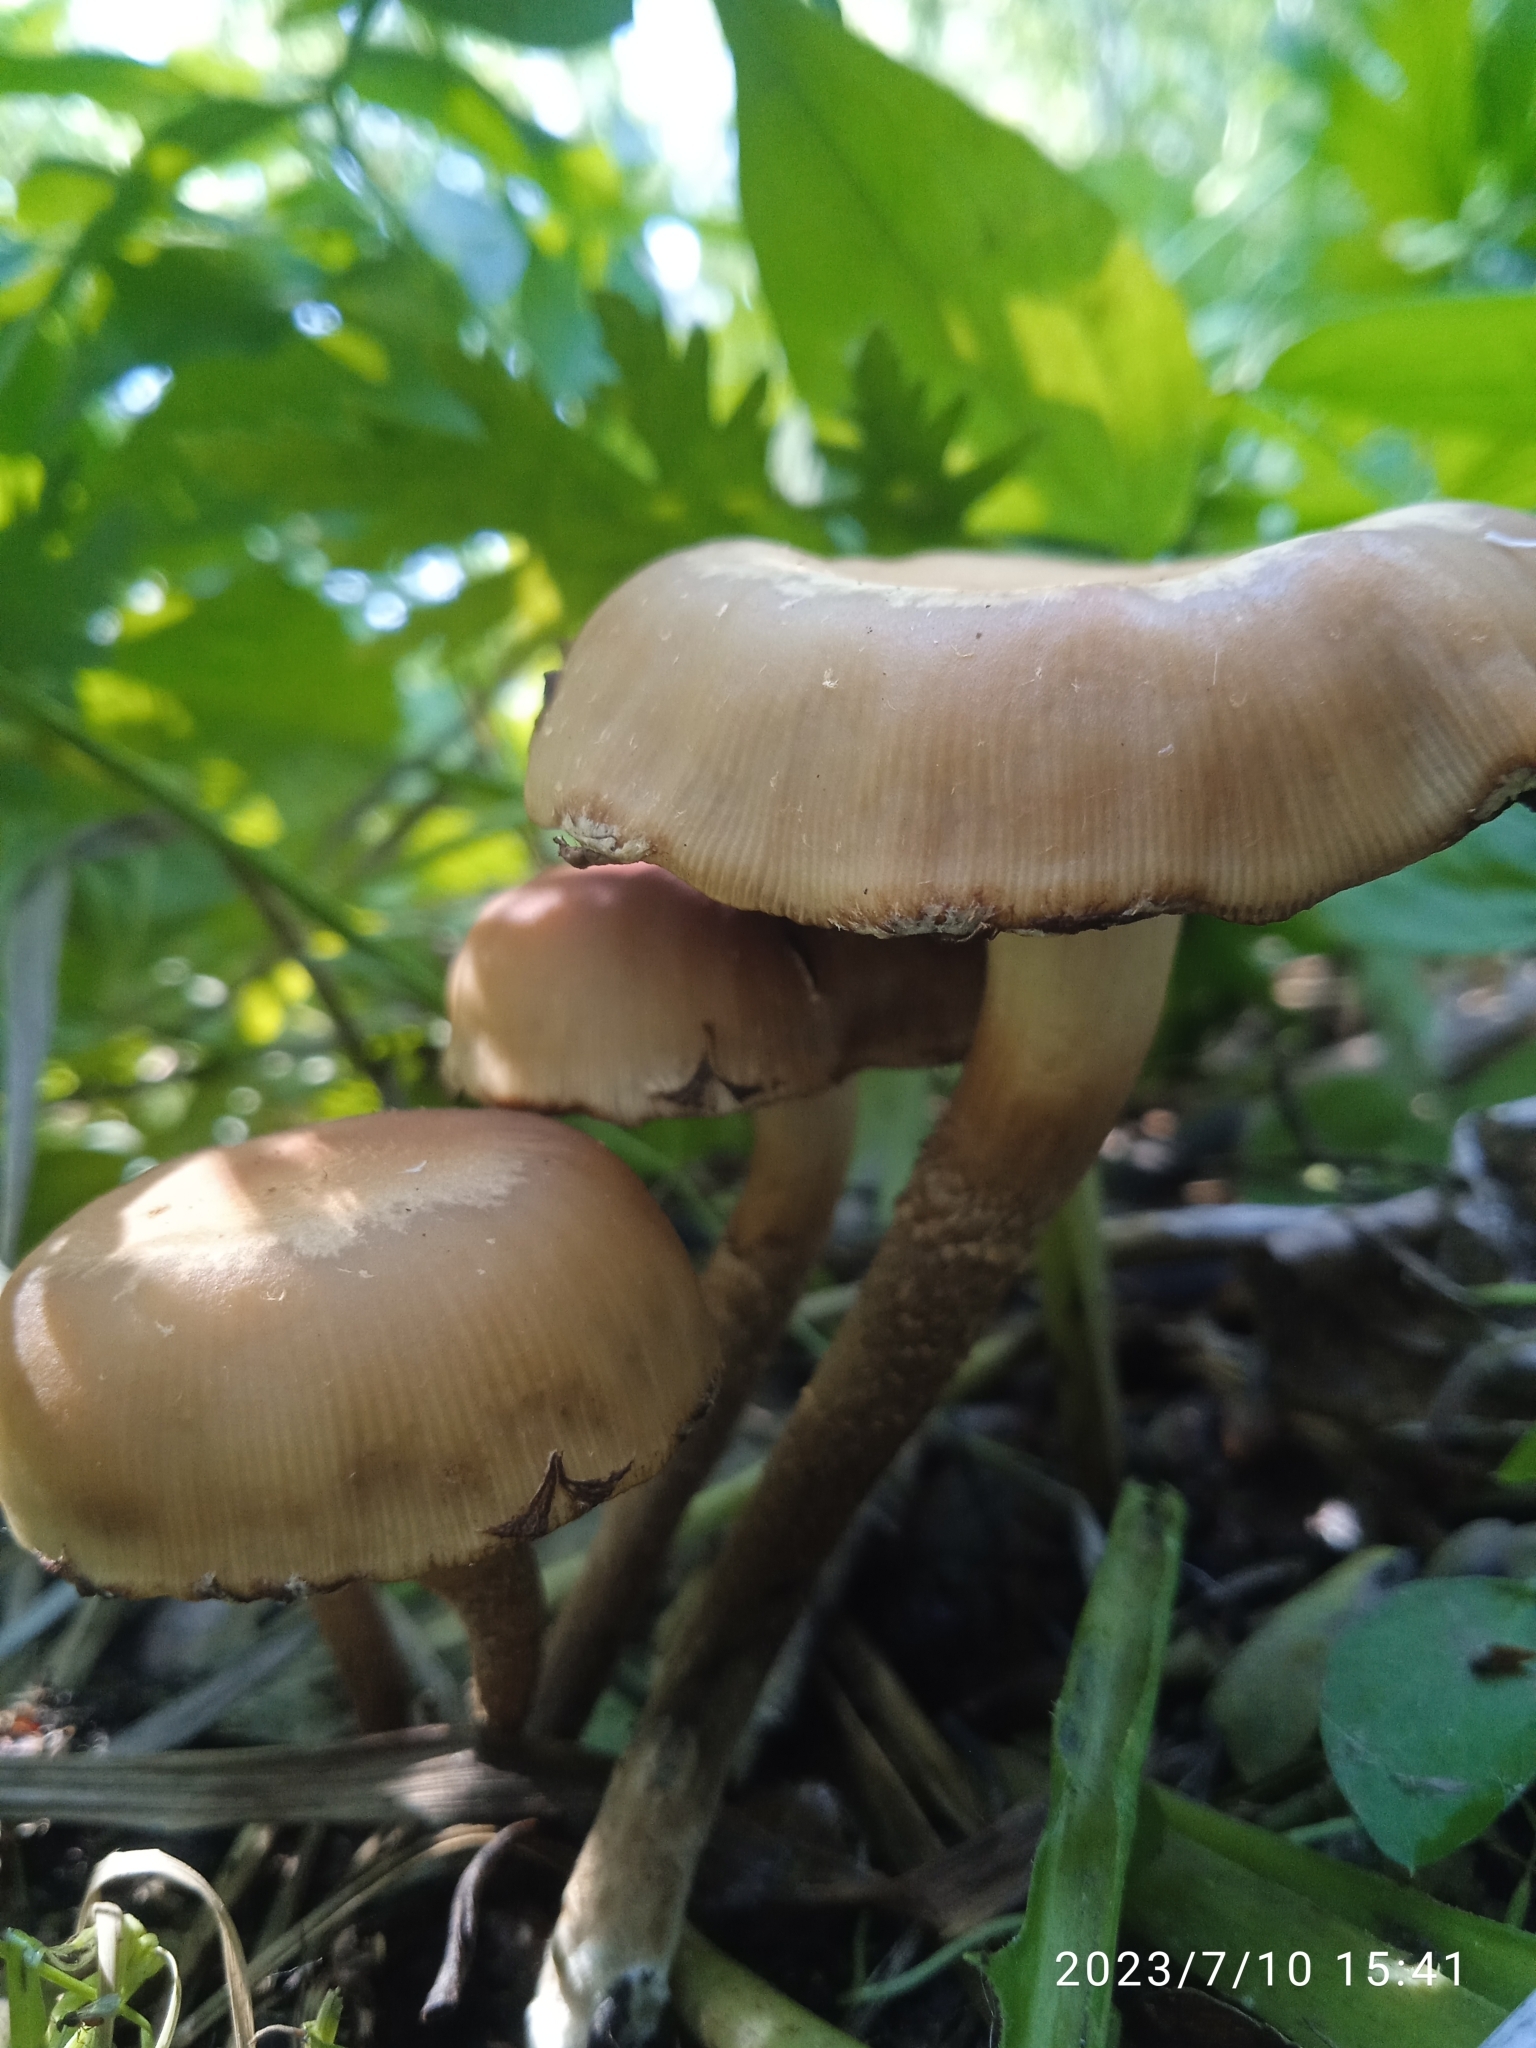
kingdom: Fungi
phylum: Basidiomycota
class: Agaricomycetes
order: Agaricales
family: Strophariaceae
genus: Kuehneromyces
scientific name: Kuehneromyces mutabilis
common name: Sheathed woodtuft
